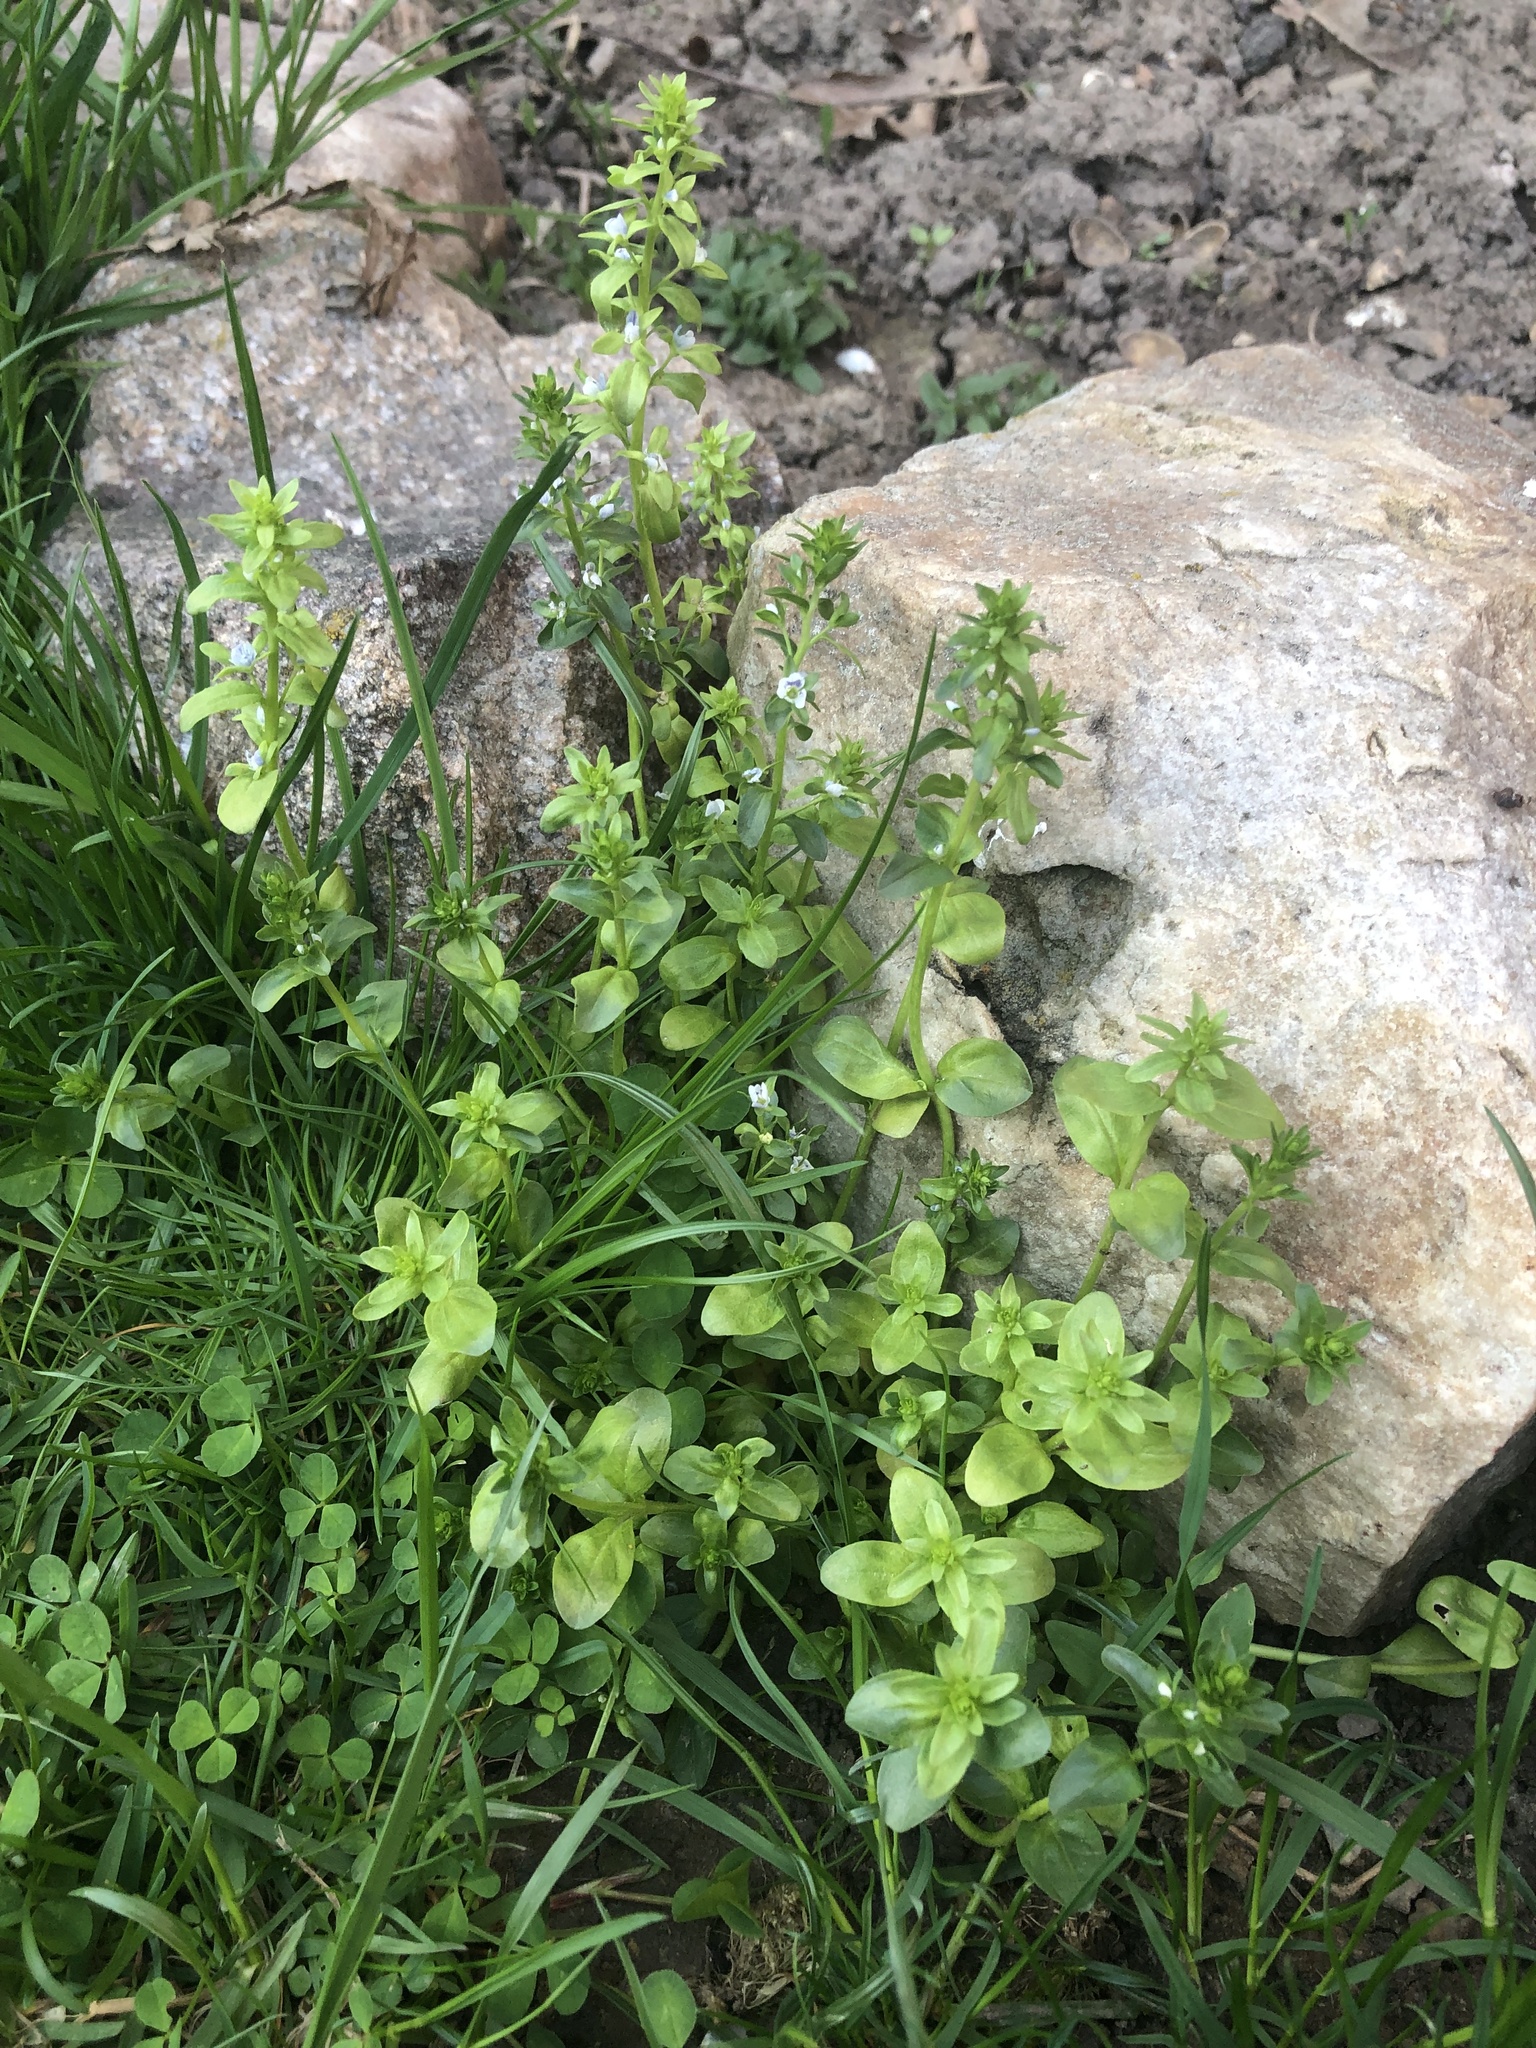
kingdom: Plantae
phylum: Tracheophyta
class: Magnoliopsida
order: Lamiales
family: Plantaginaceae
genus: Veronica
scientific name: Veronica serpyllifolia
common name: Thyme-leaved speedwell
